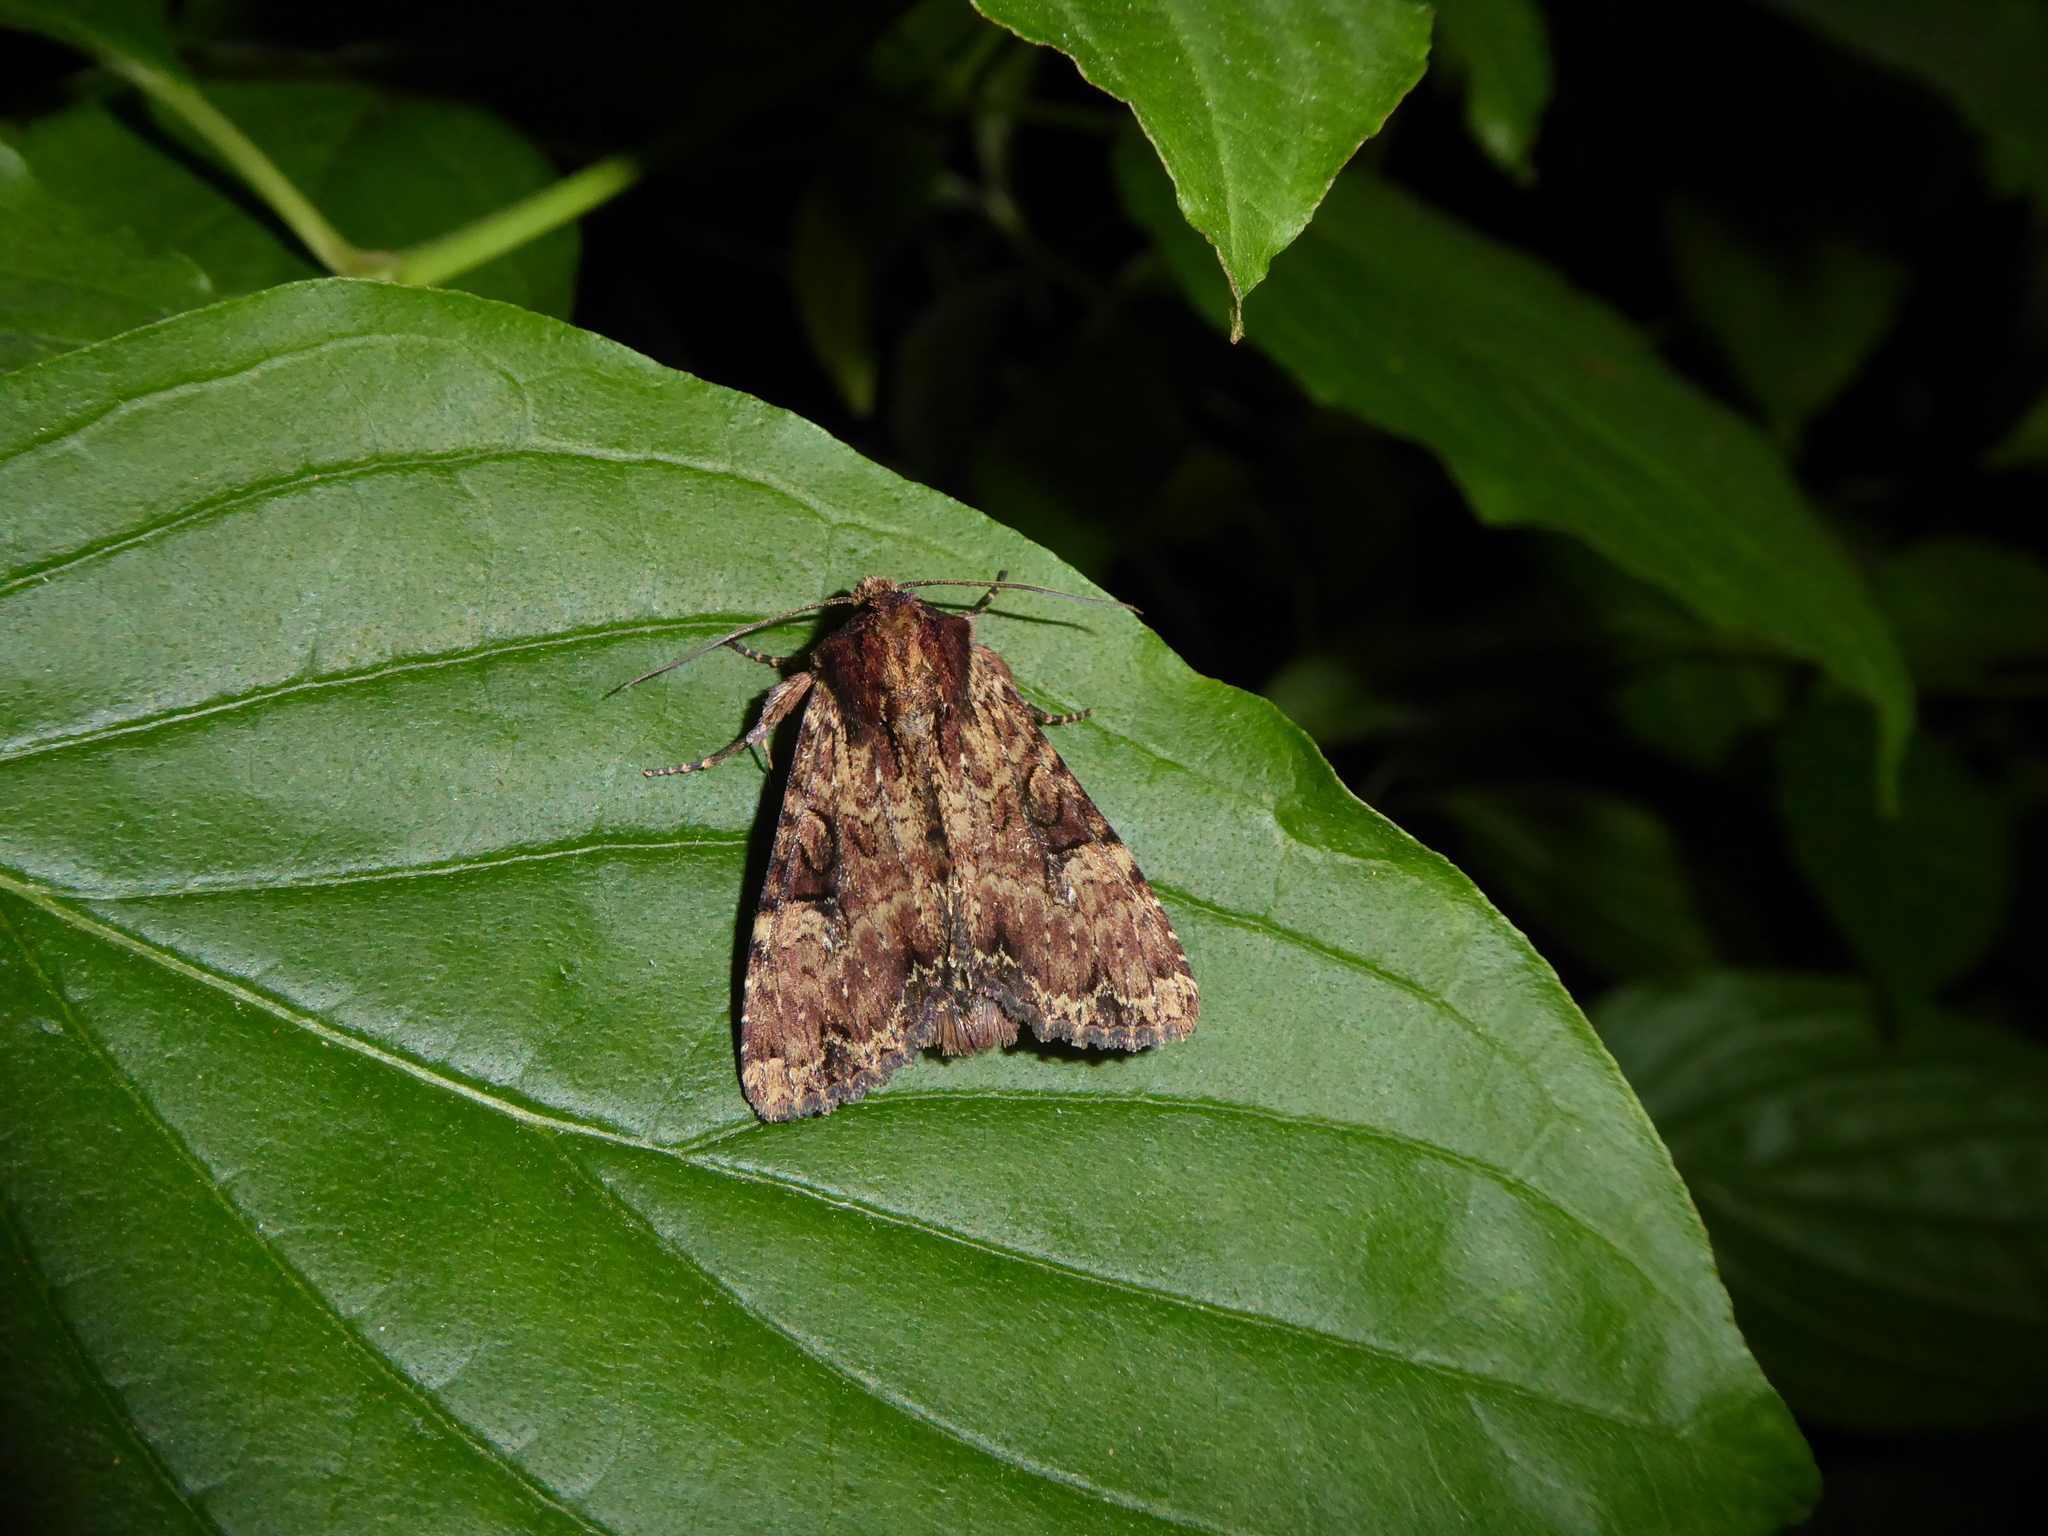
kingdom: Animalia
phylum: Arthropoda
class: Insecta
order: Lepidoptera
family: Noctuidae
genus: Apamea
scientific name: Apamea epomidion
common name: Clouded brindle
